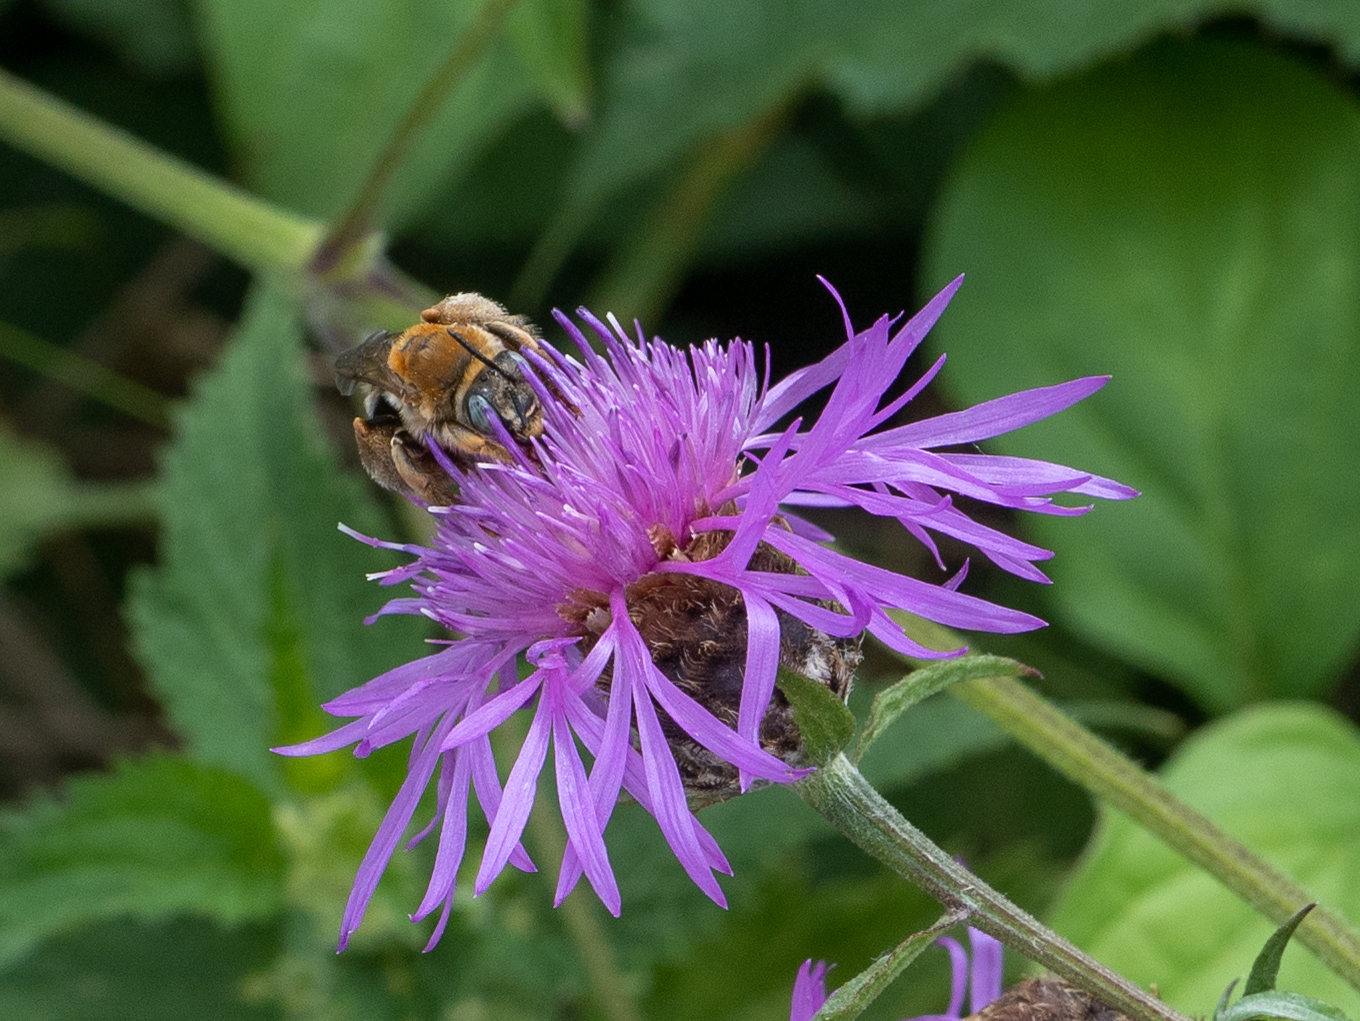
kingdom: Animalia
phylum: Arthropoda
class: Insecta
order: Hymenoptera
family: Apidae
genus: Tetraloniella
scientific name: Tetraloniella dentata
